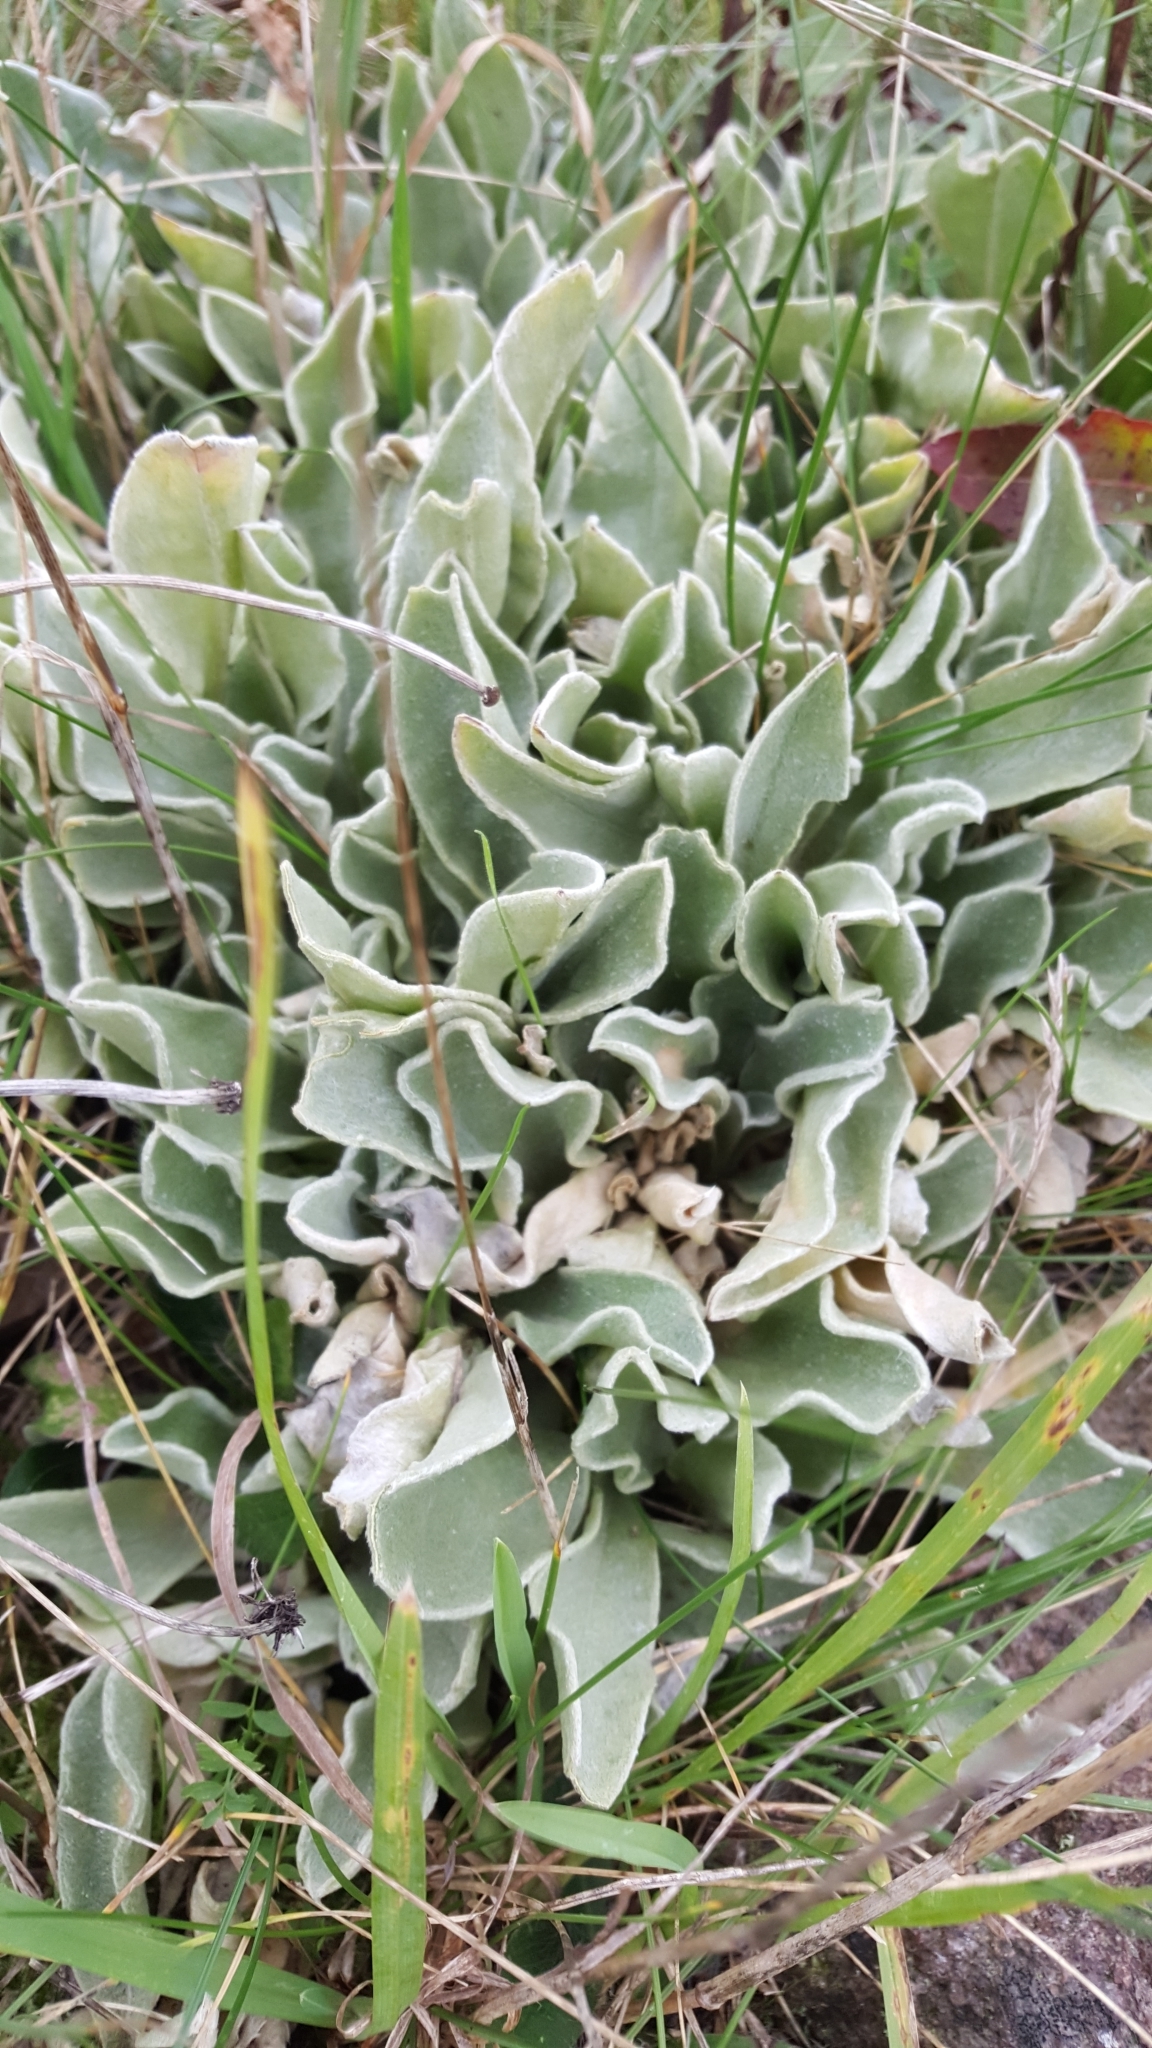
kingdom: Plantae
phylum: Tracheophyta
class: Magnoliopsida
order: Caryophyllales
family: Caryophyllaceae
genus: Silene
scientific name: Silene coronaria
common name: Rose campion
